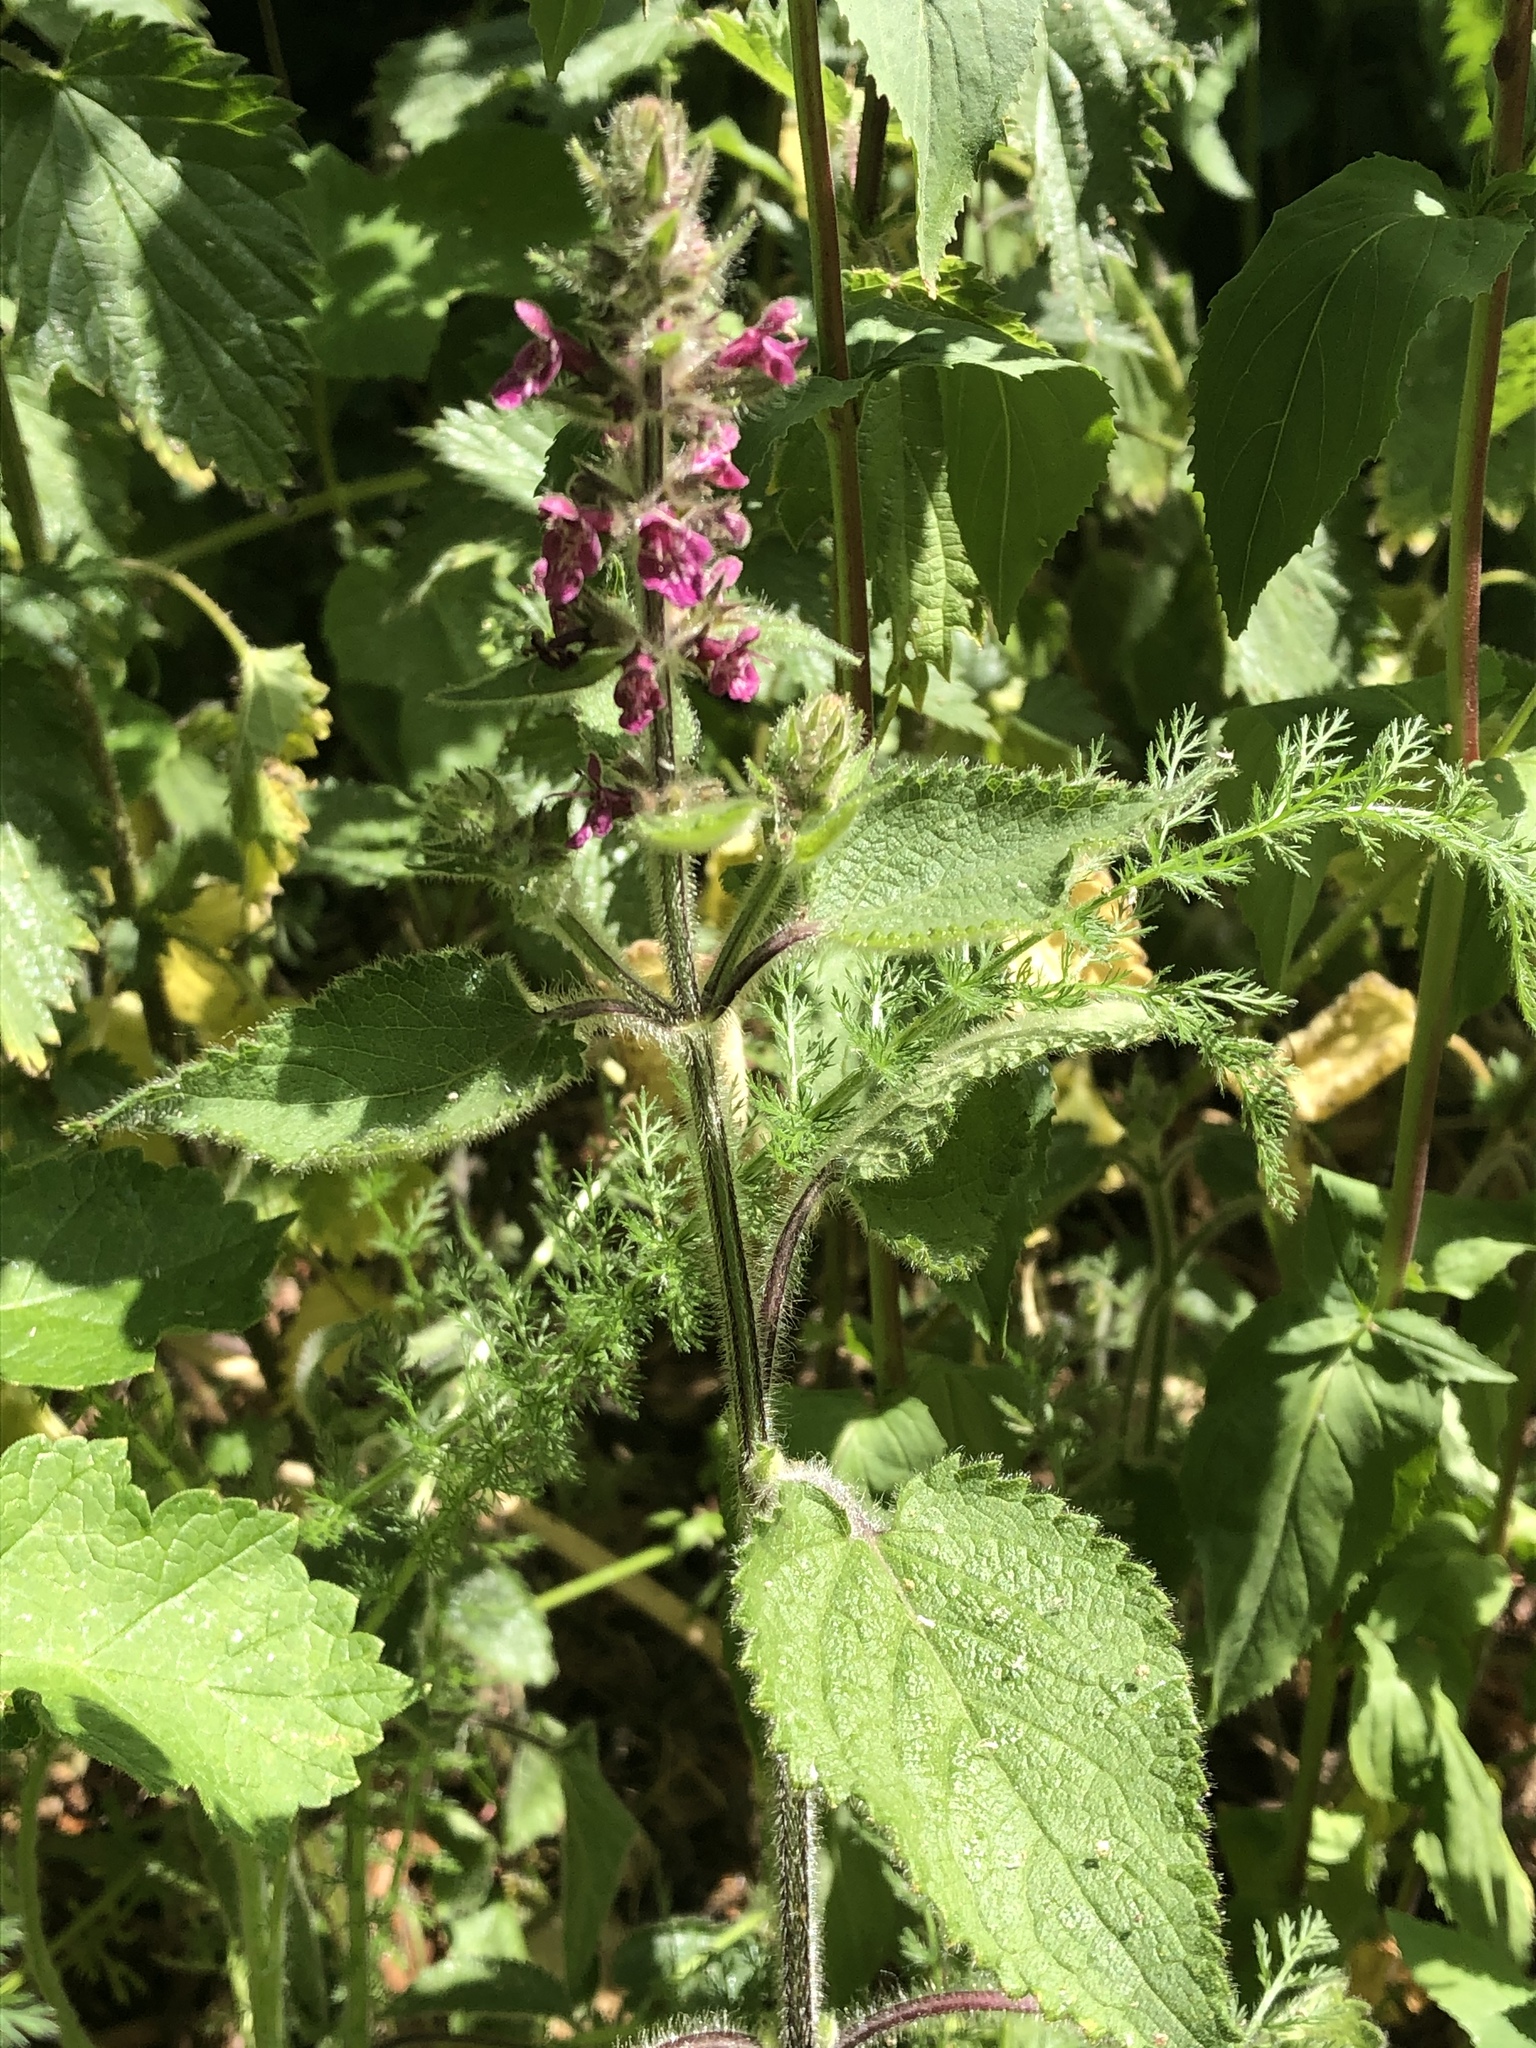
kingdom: Plantae
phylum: Tracheophyta
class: Magnoliopsida
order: Lamiales
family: Lamiaceae
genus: Stachys
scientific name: Stachys sylvatica
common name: Hedge woundwort
